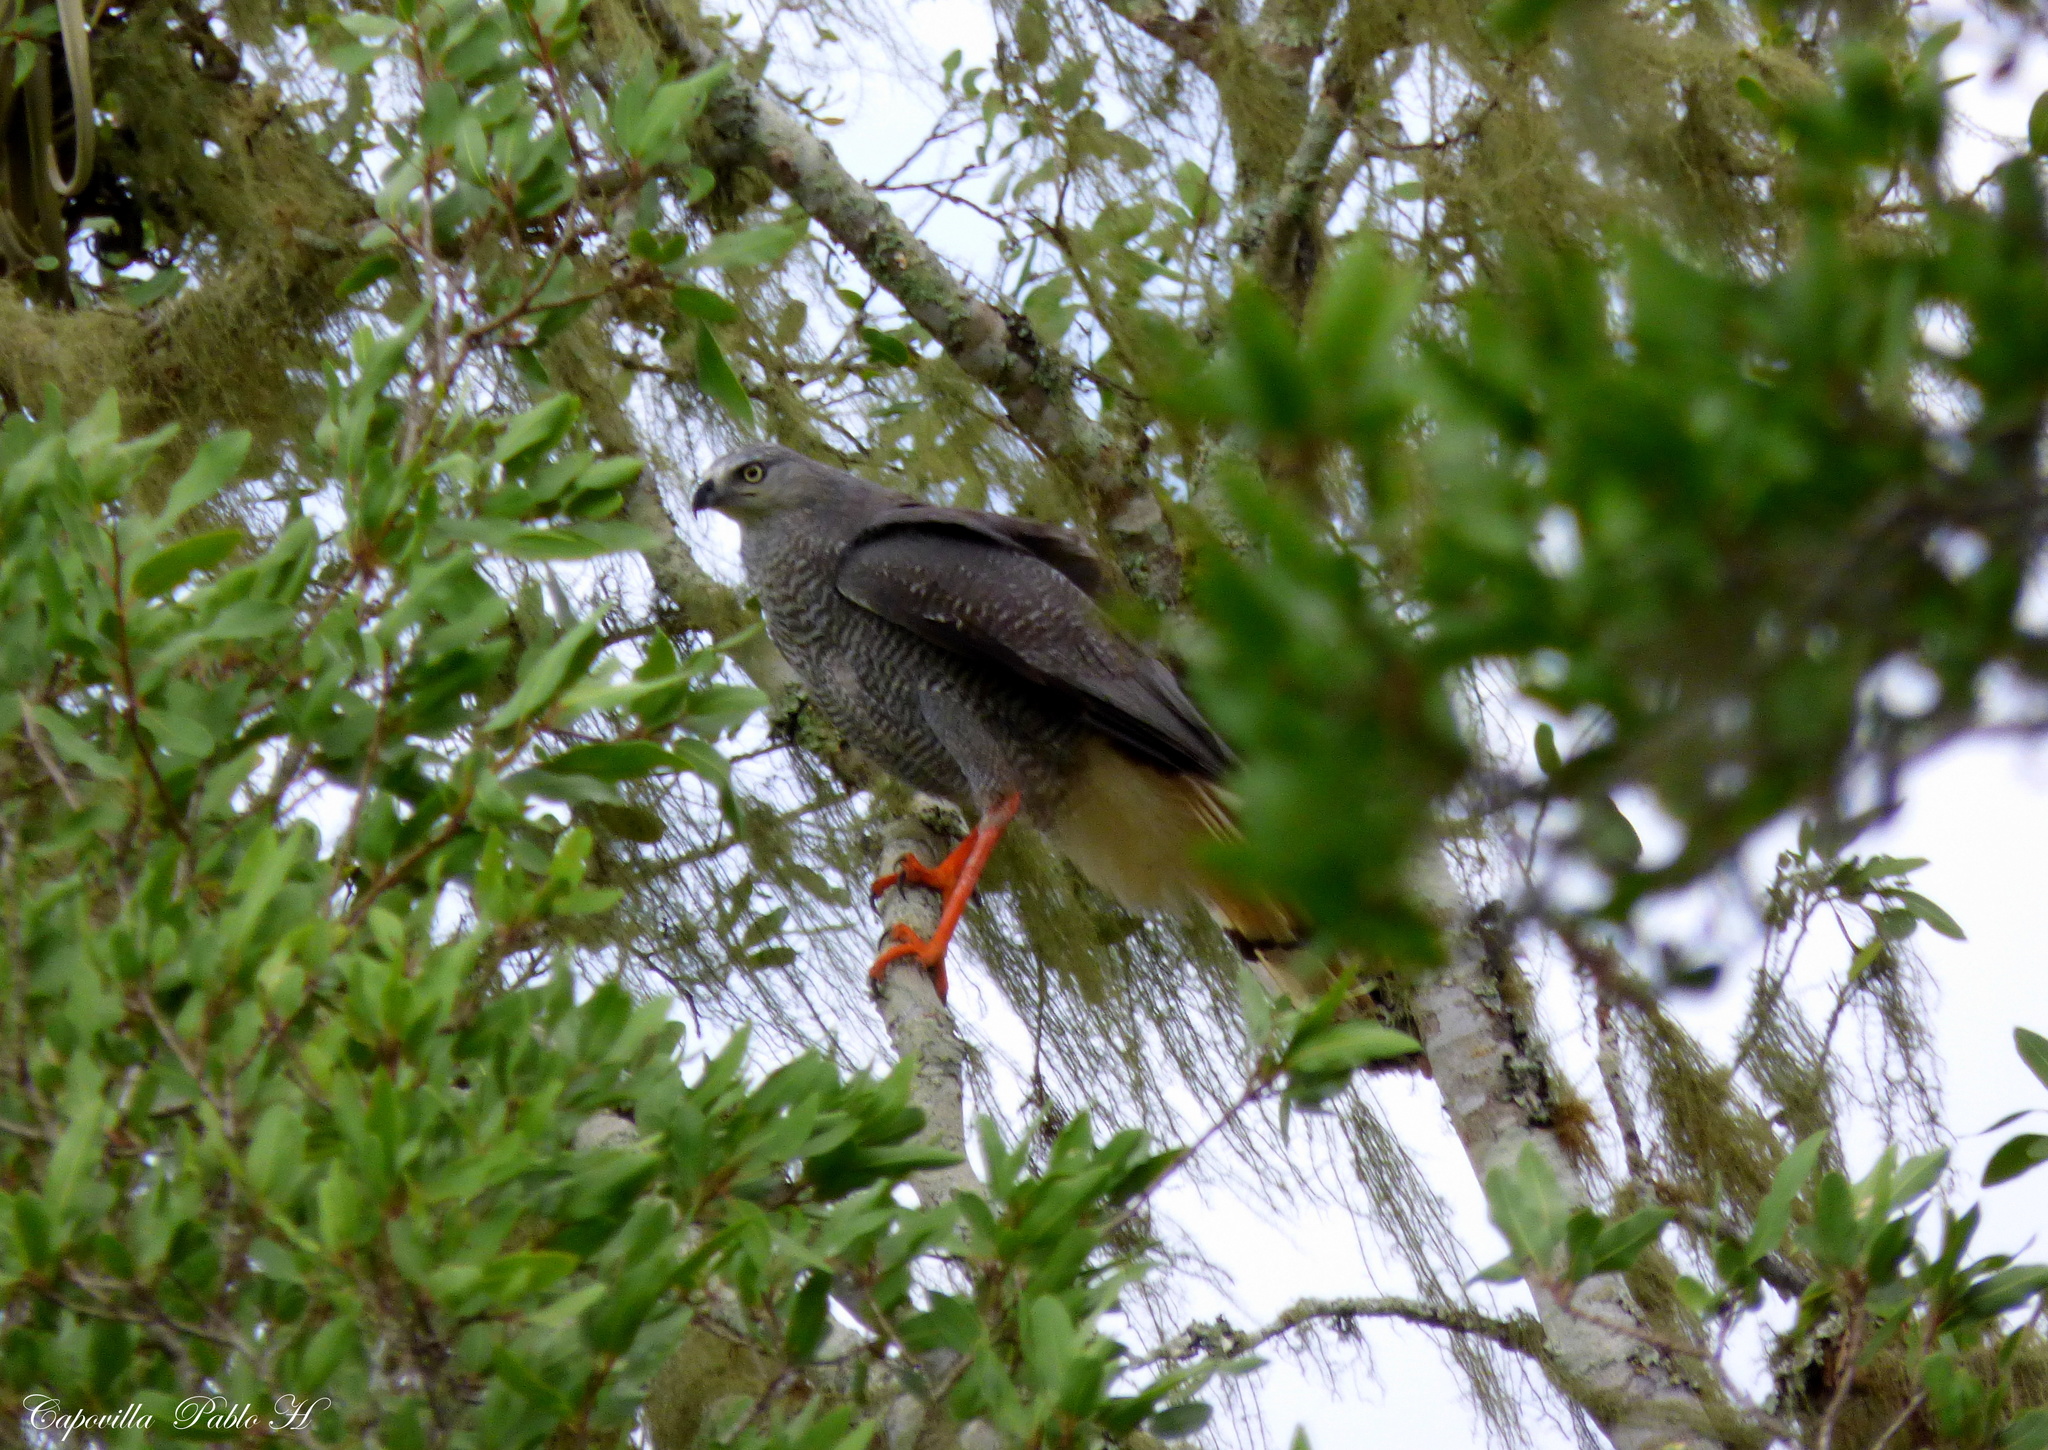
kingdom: Animalia
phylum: Chordata
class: Aves
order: Accipitriformes
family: Accipitridae
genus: Geranospiza
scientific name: Geranospiza caerulescens
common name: Crane hawk
